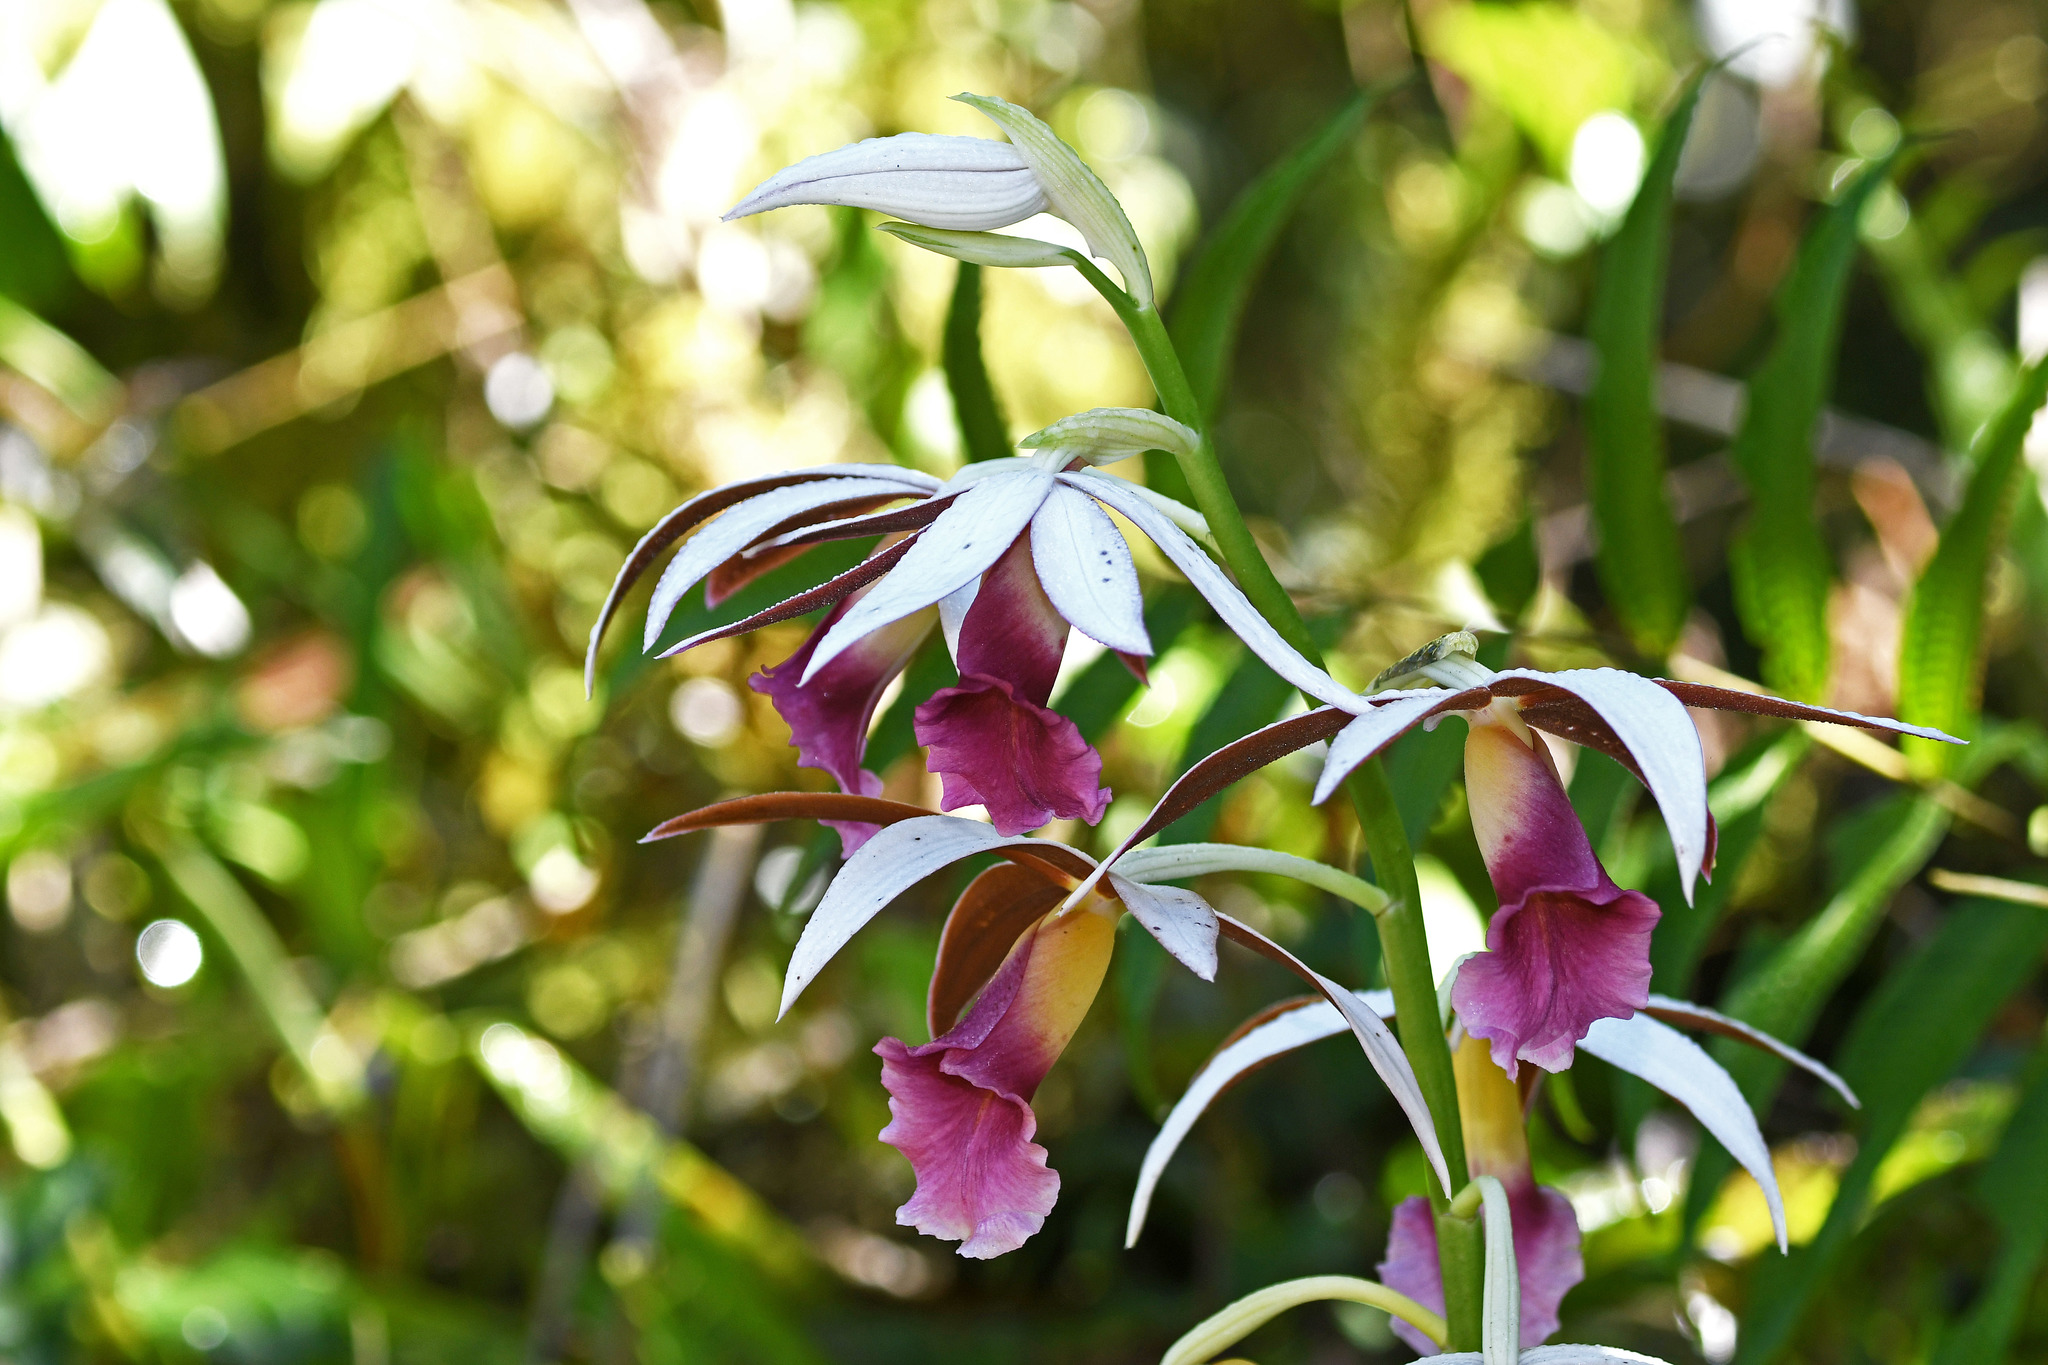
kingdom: Plantae
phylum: Tracheophyta
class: Liliopsida
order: Asparagales
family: Orchidaceae
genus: Calanthe
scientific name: Calanthe tankervilleae
